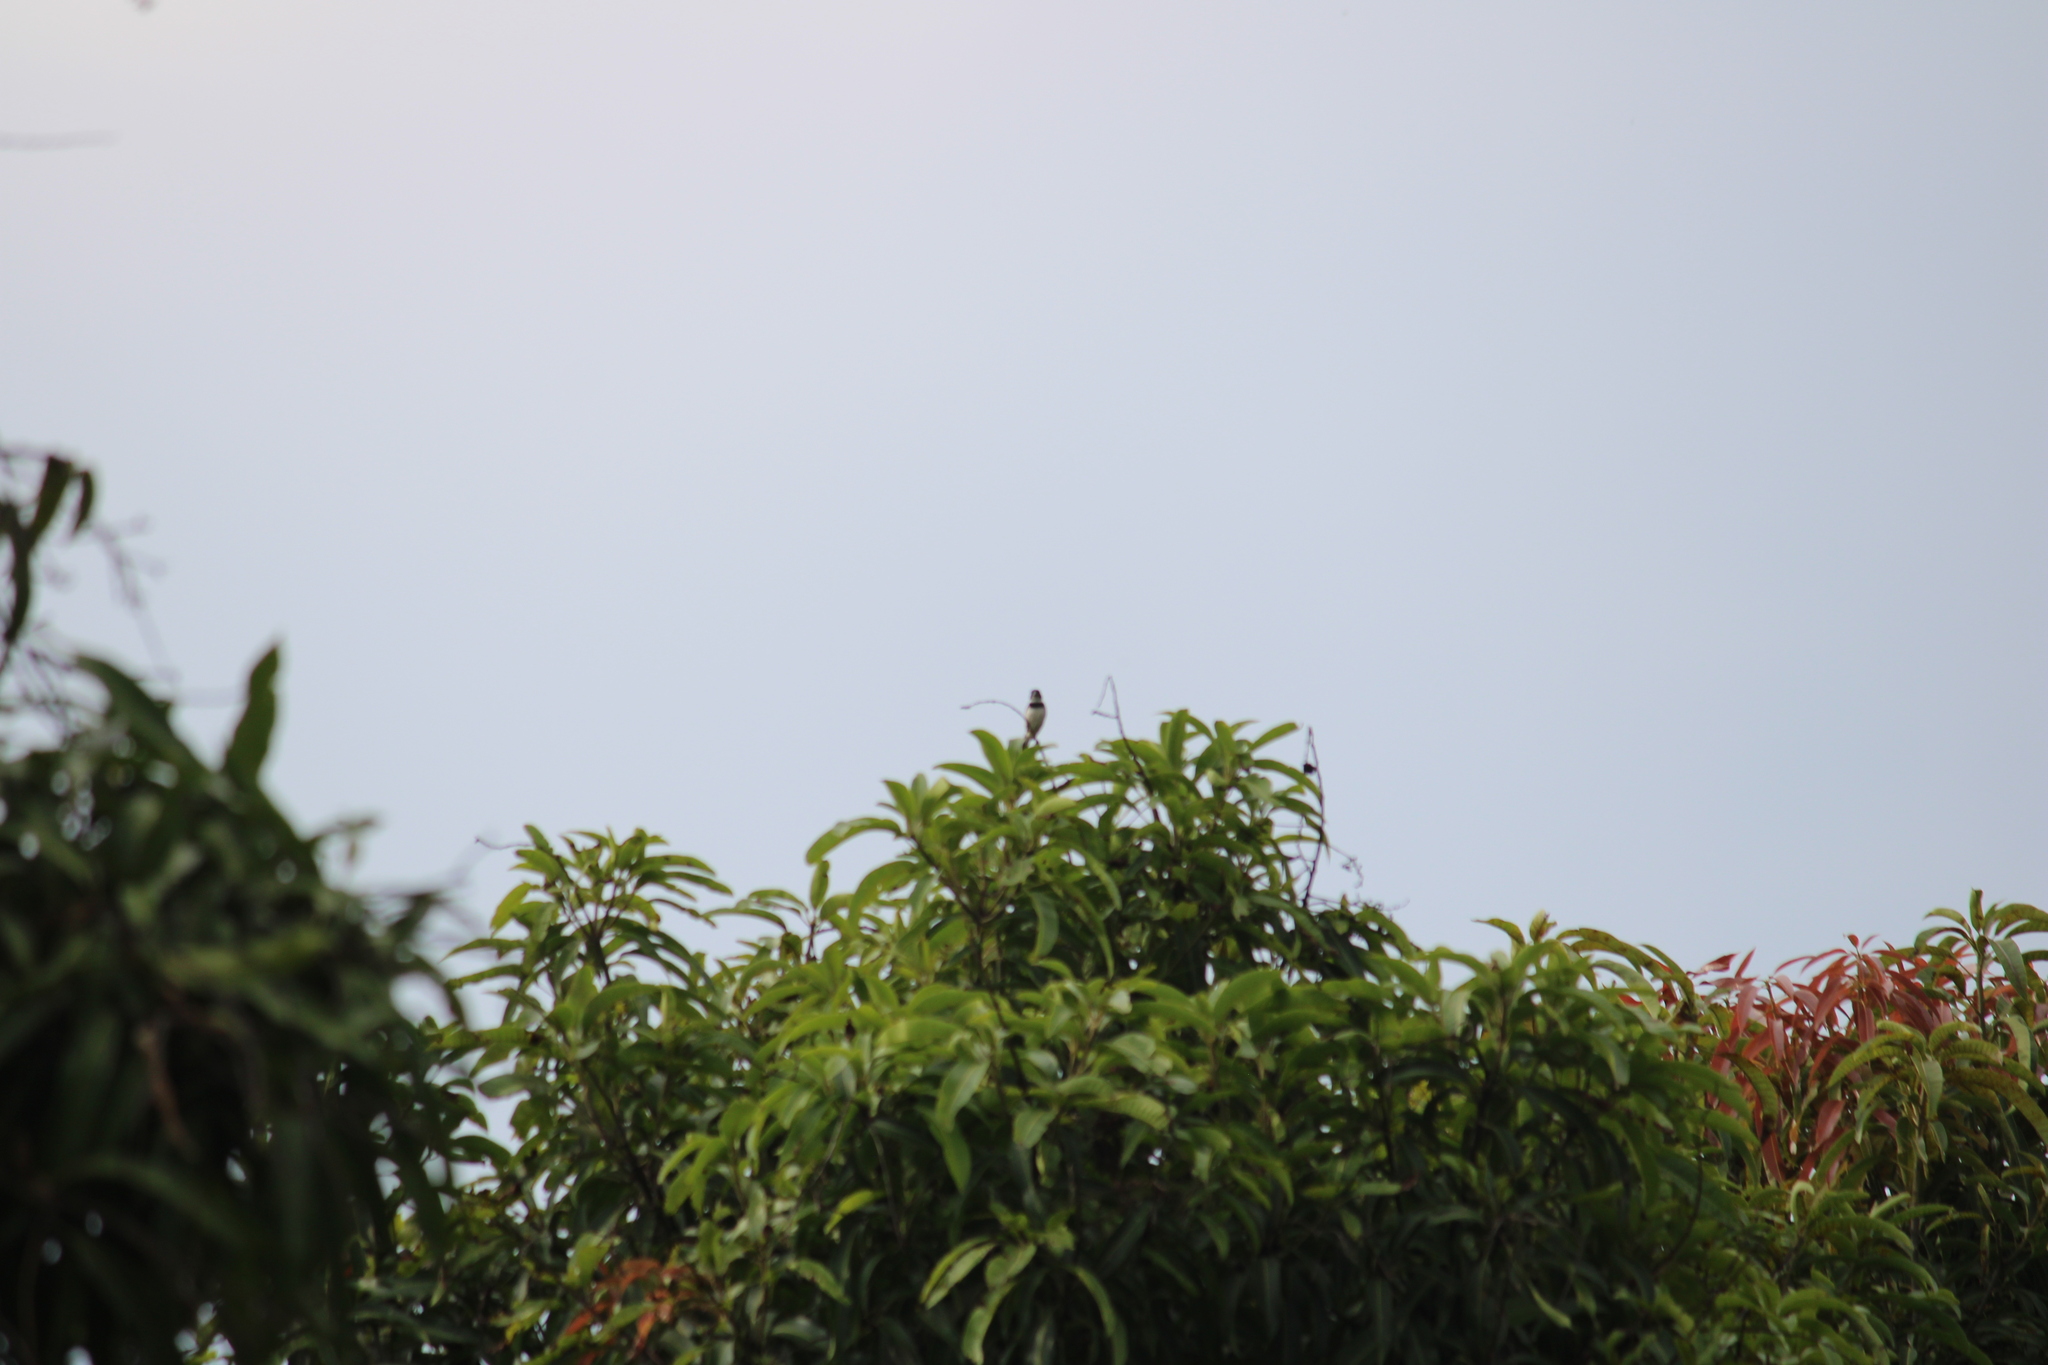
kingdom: Animalia
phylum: Chordata
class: Aves
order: Passeriformes
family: Thraupidae
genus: Sporophila
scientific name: Sporophila morelleti
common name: Morelet's seedeater
